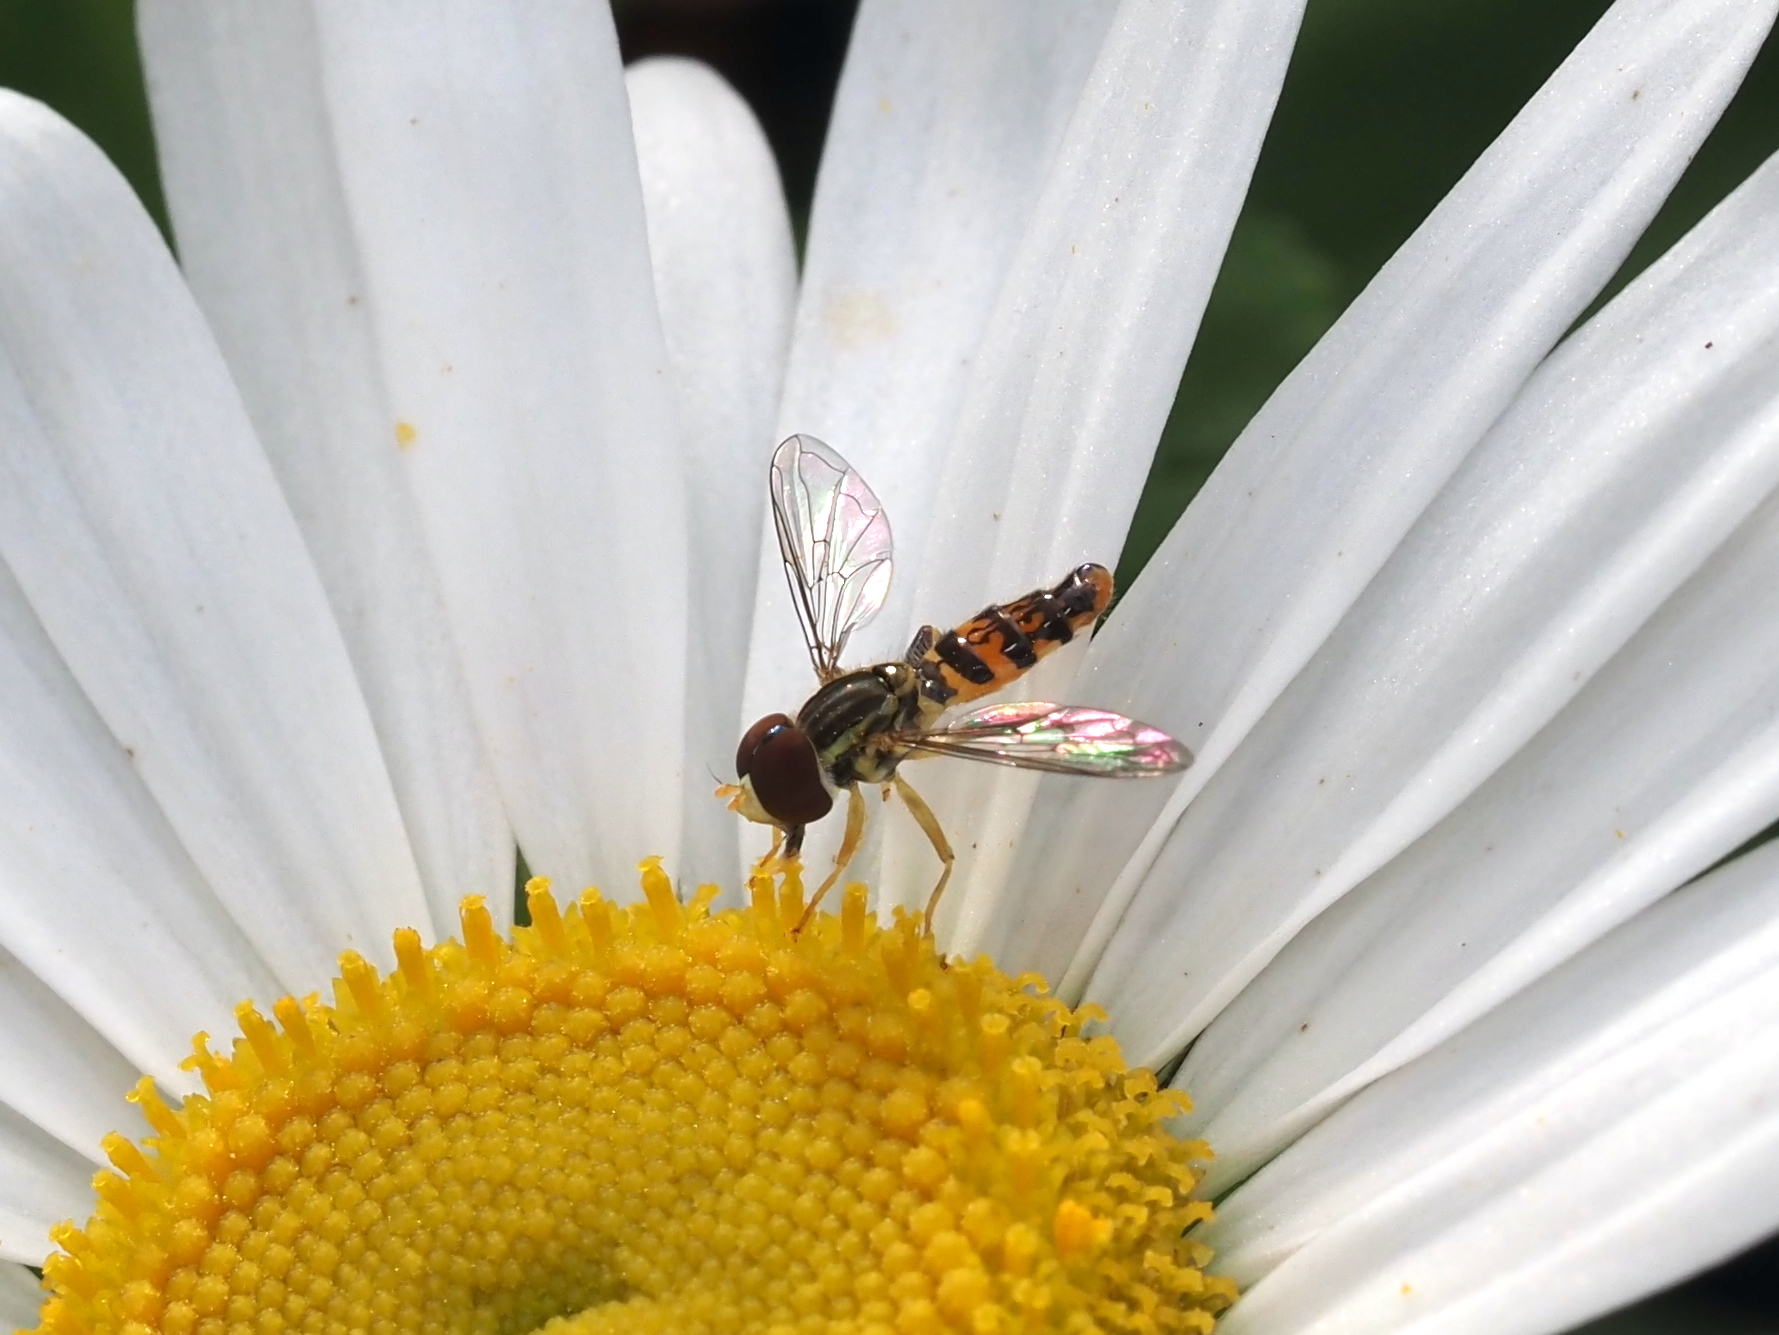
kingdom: Animalia
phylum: Arthropoda
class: Insecta
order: Diptera
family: Syrphidae
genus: Toxomerus
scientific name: Toxomerus geminatus
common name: Eastern calligrapher
